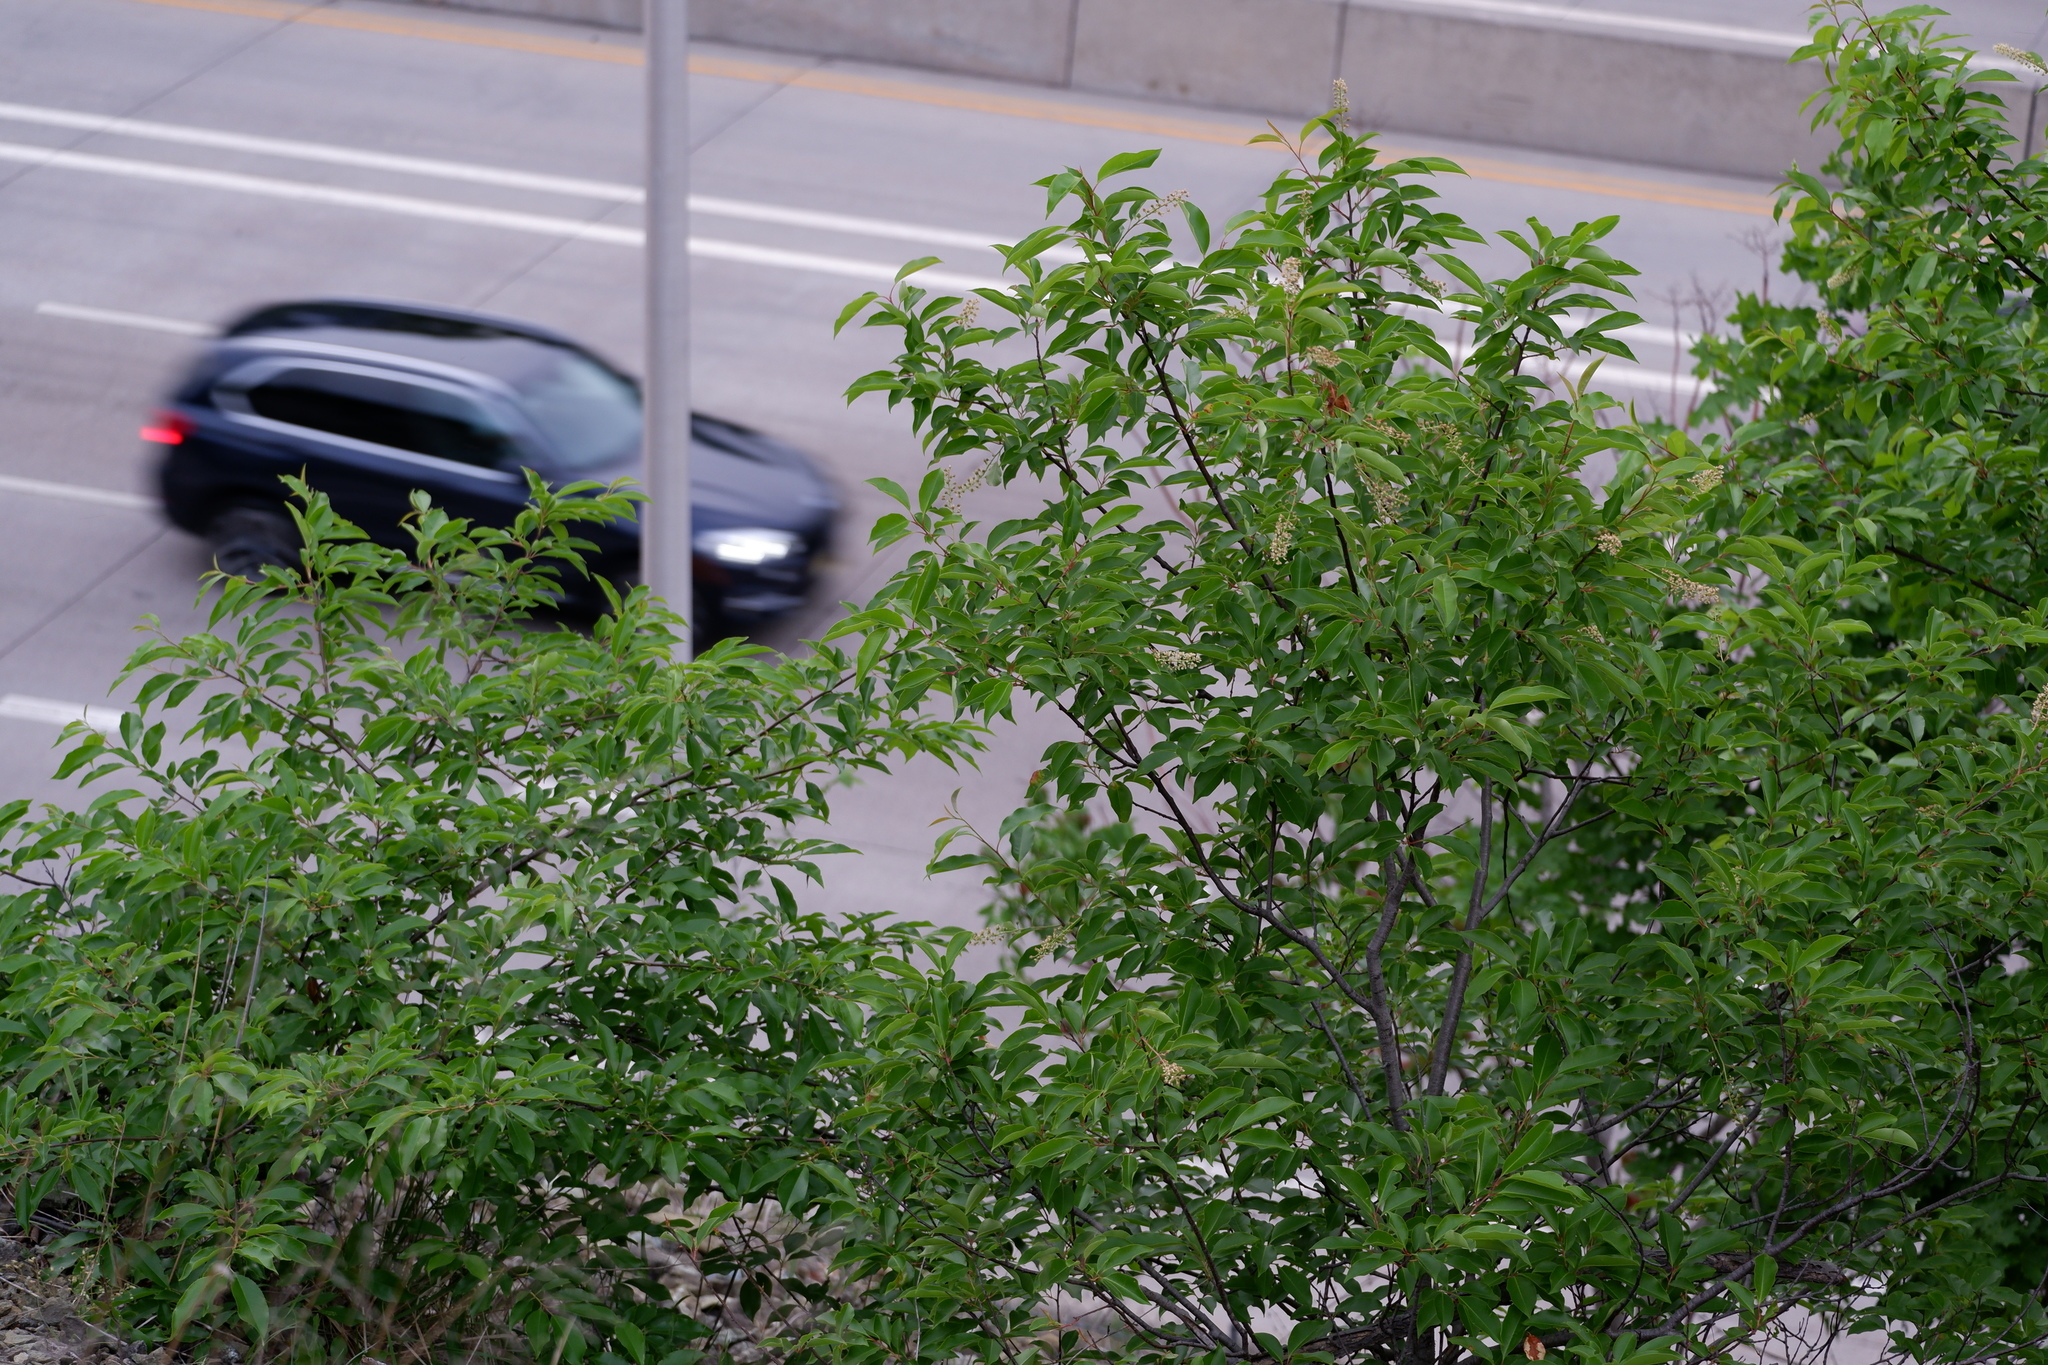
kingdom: Plantae
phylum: Tracheophyta
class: Magnoliopsida
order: Rosales
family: Rosaceae
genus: Prunus
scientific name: Prunus serotina
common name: Black cherry
